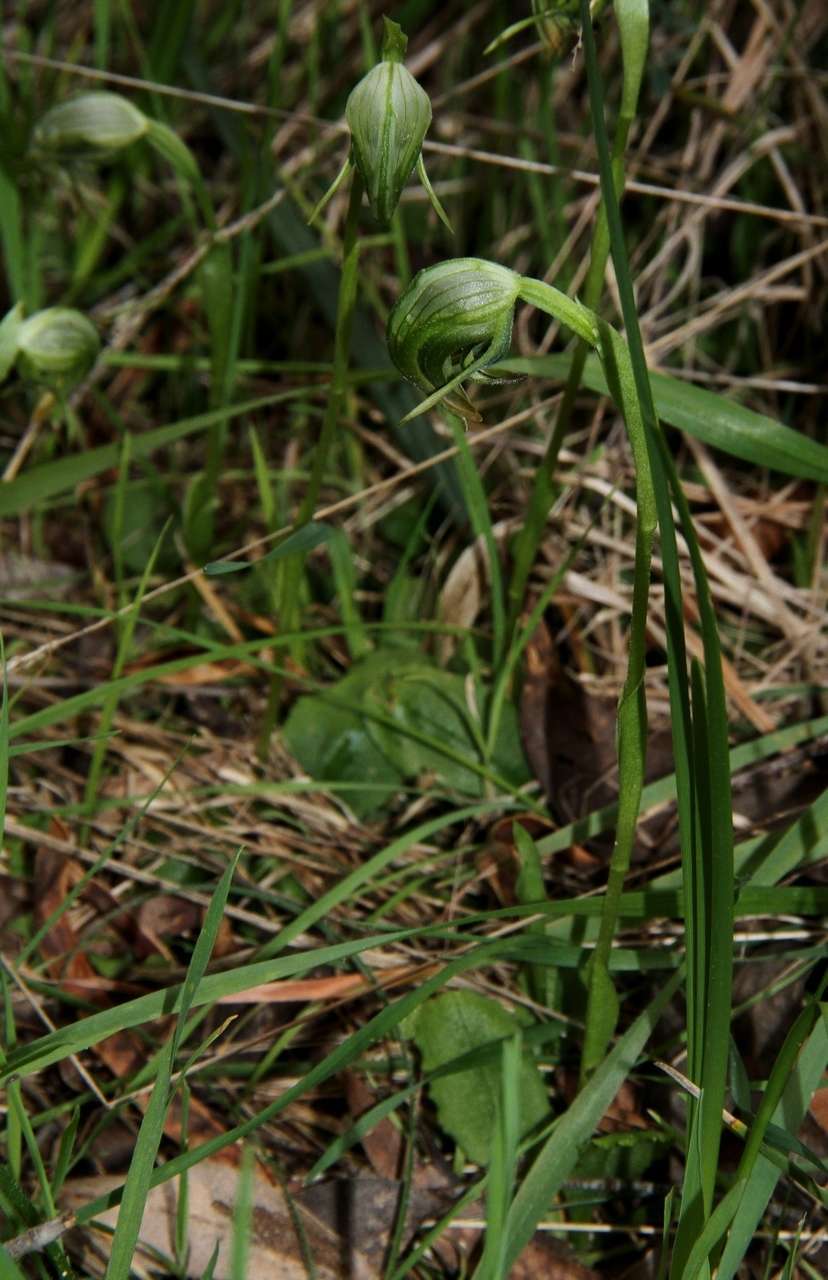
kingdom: Plantae
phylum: Tracheophyta
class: Liliopsida
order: Asparagales
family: Orchidaceae
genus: Pterostylis
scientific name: Pterostylis nutans
